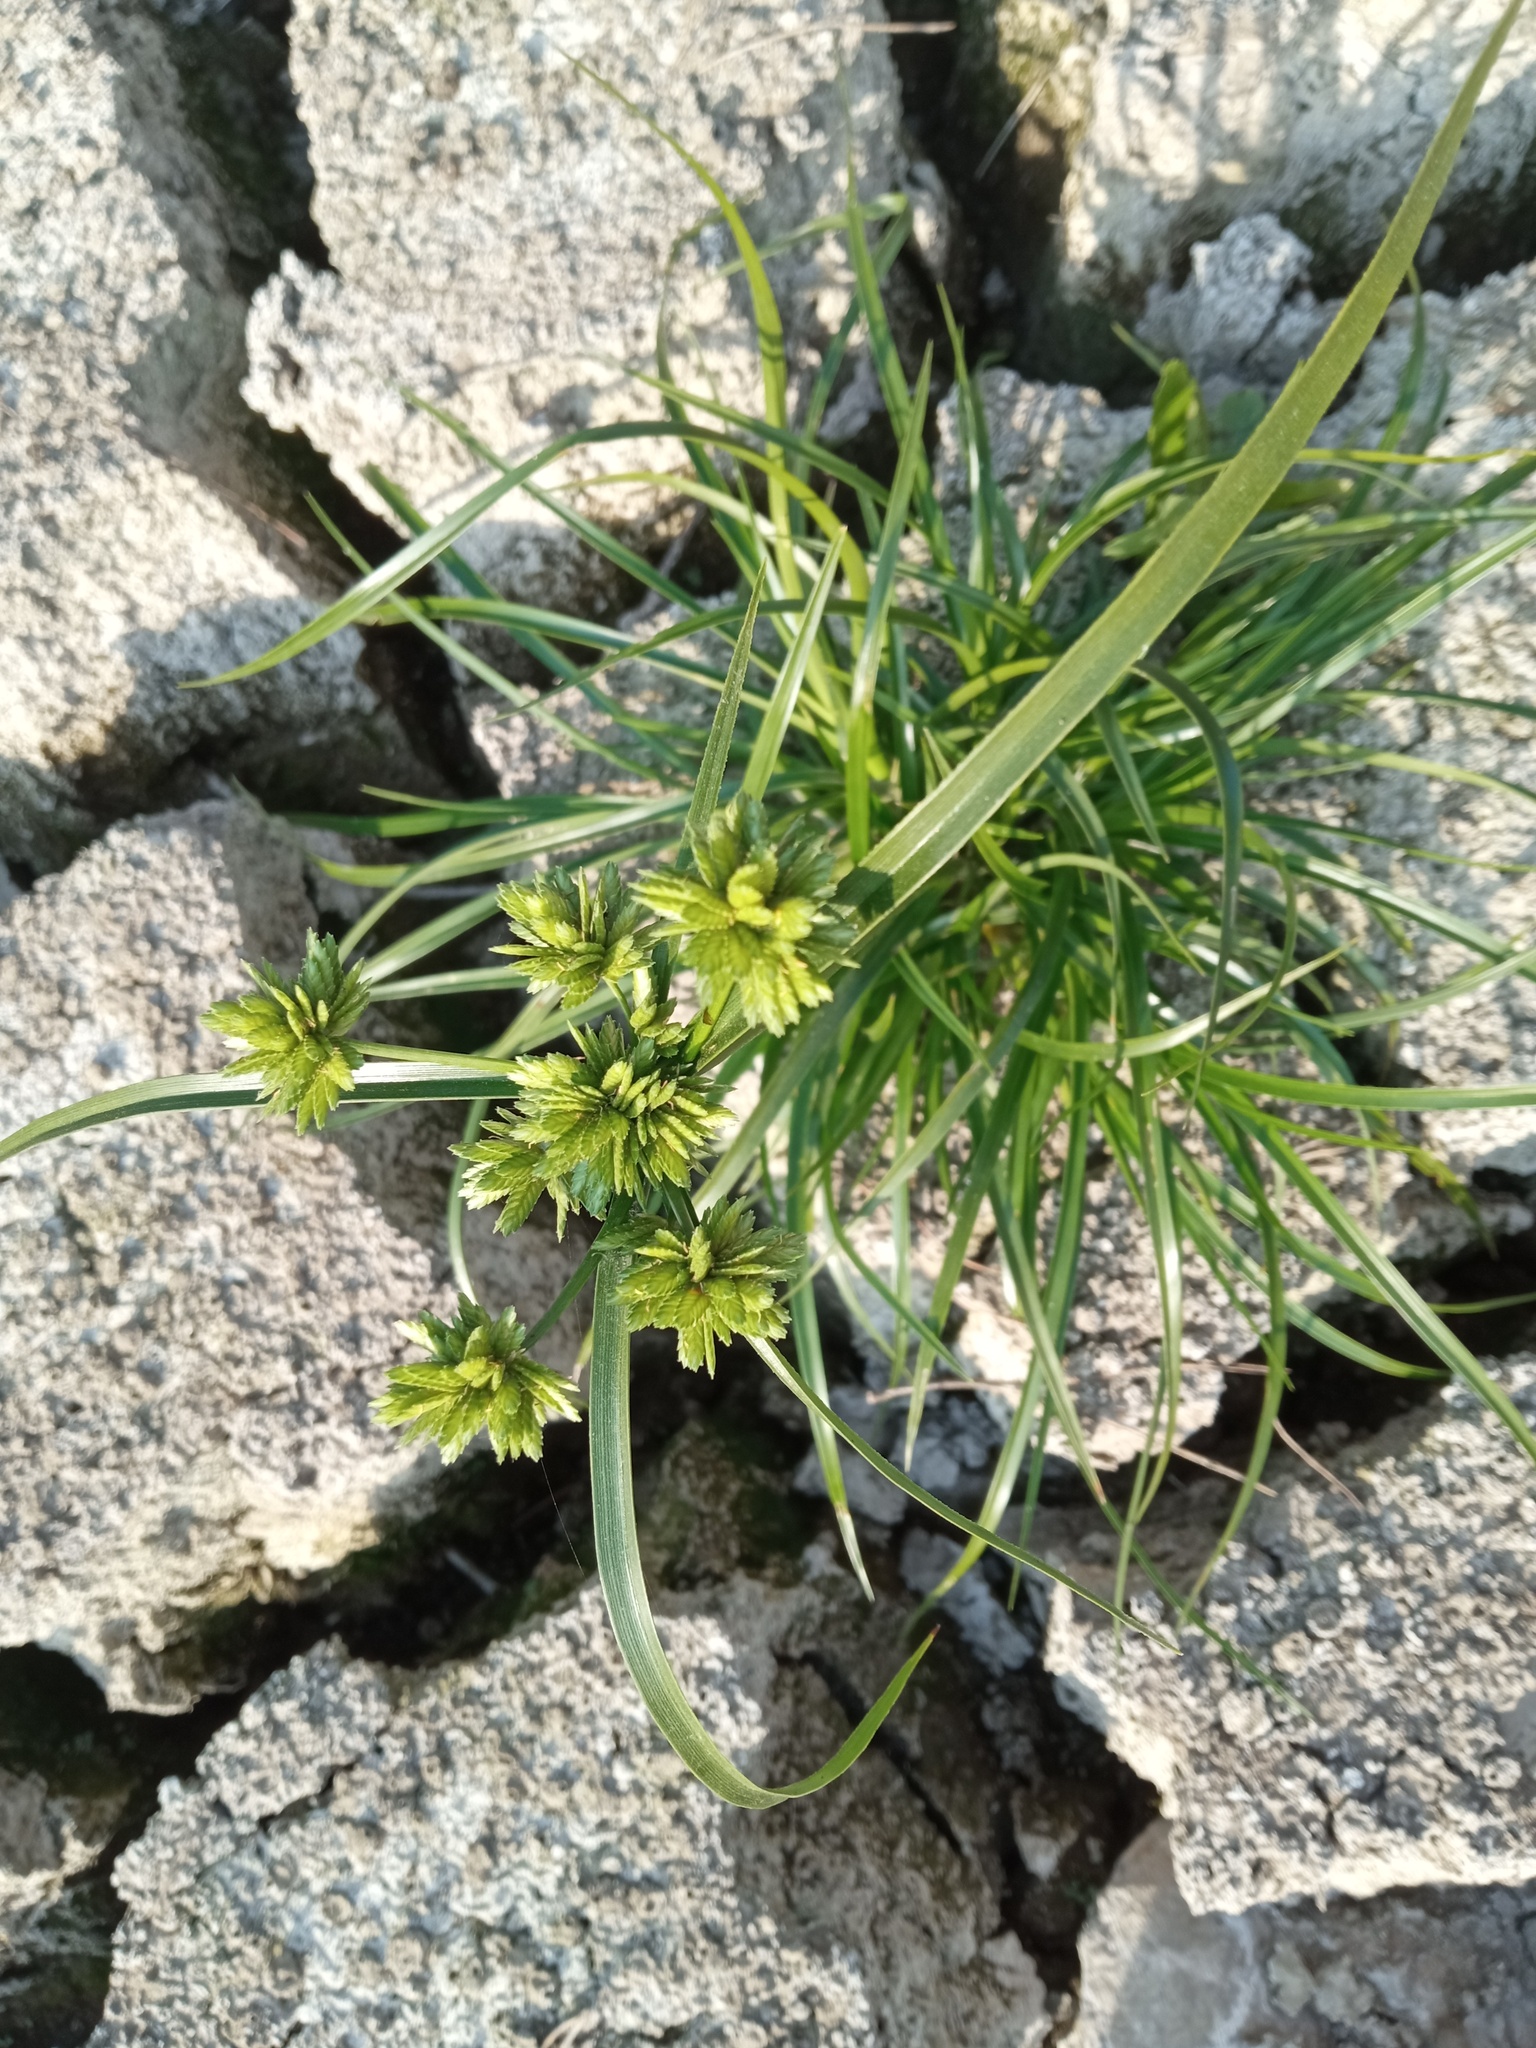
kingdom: Plantae
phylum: Tracheophyta
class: Liliopsida
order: Poales
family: Cyperaceae
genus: Cyperus
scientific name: Cyperus eragrostis
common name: Tall flatsedge
